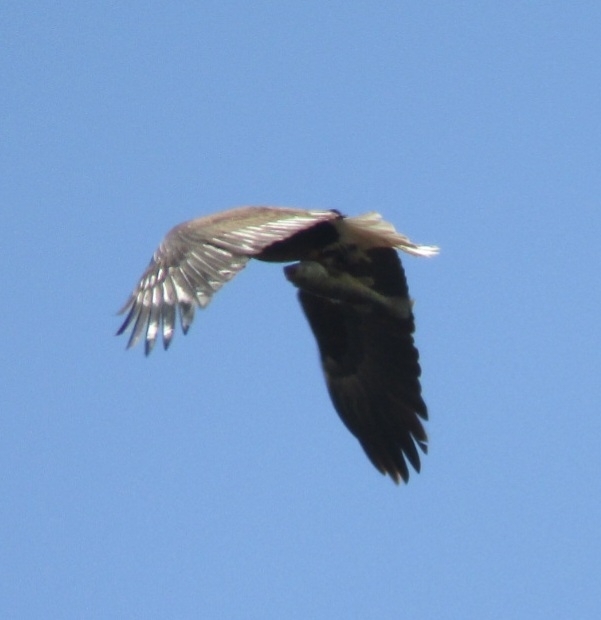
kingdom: Animalia
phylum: Chordata
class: Aves
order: Accipitriformes
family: Accipitridae
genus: Haliaeetus
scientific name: Haliaeetus leucocephalus
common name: Bald eagle
